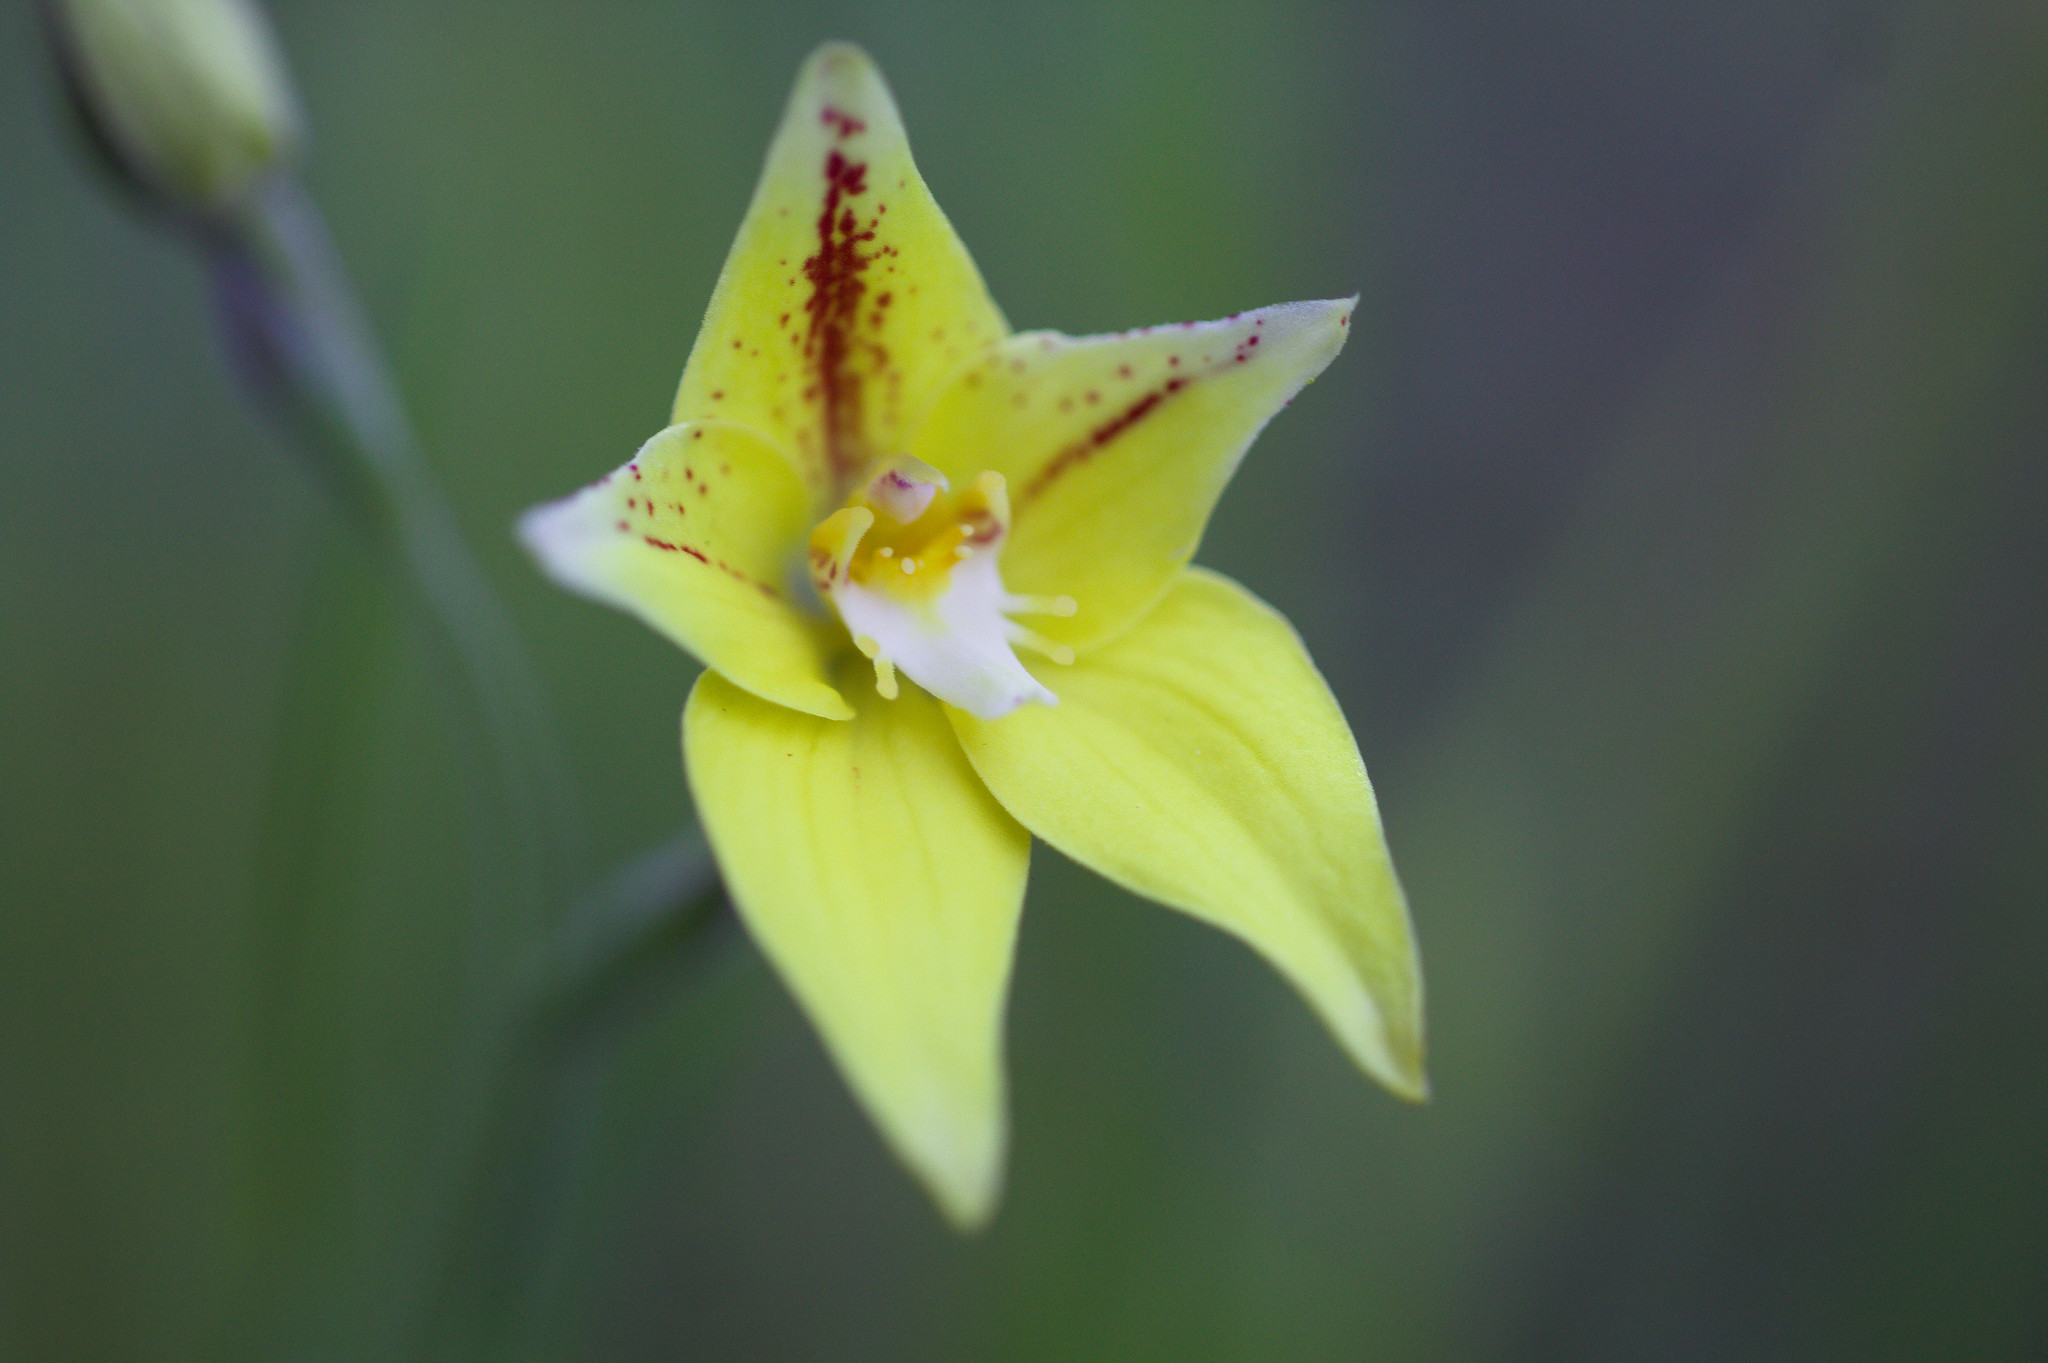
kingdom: Plantae
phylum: Tracheophyta
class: Liliopsida
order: Asparagales
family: Orchidaceae
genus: Caladenia
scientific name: Caladenia flava
